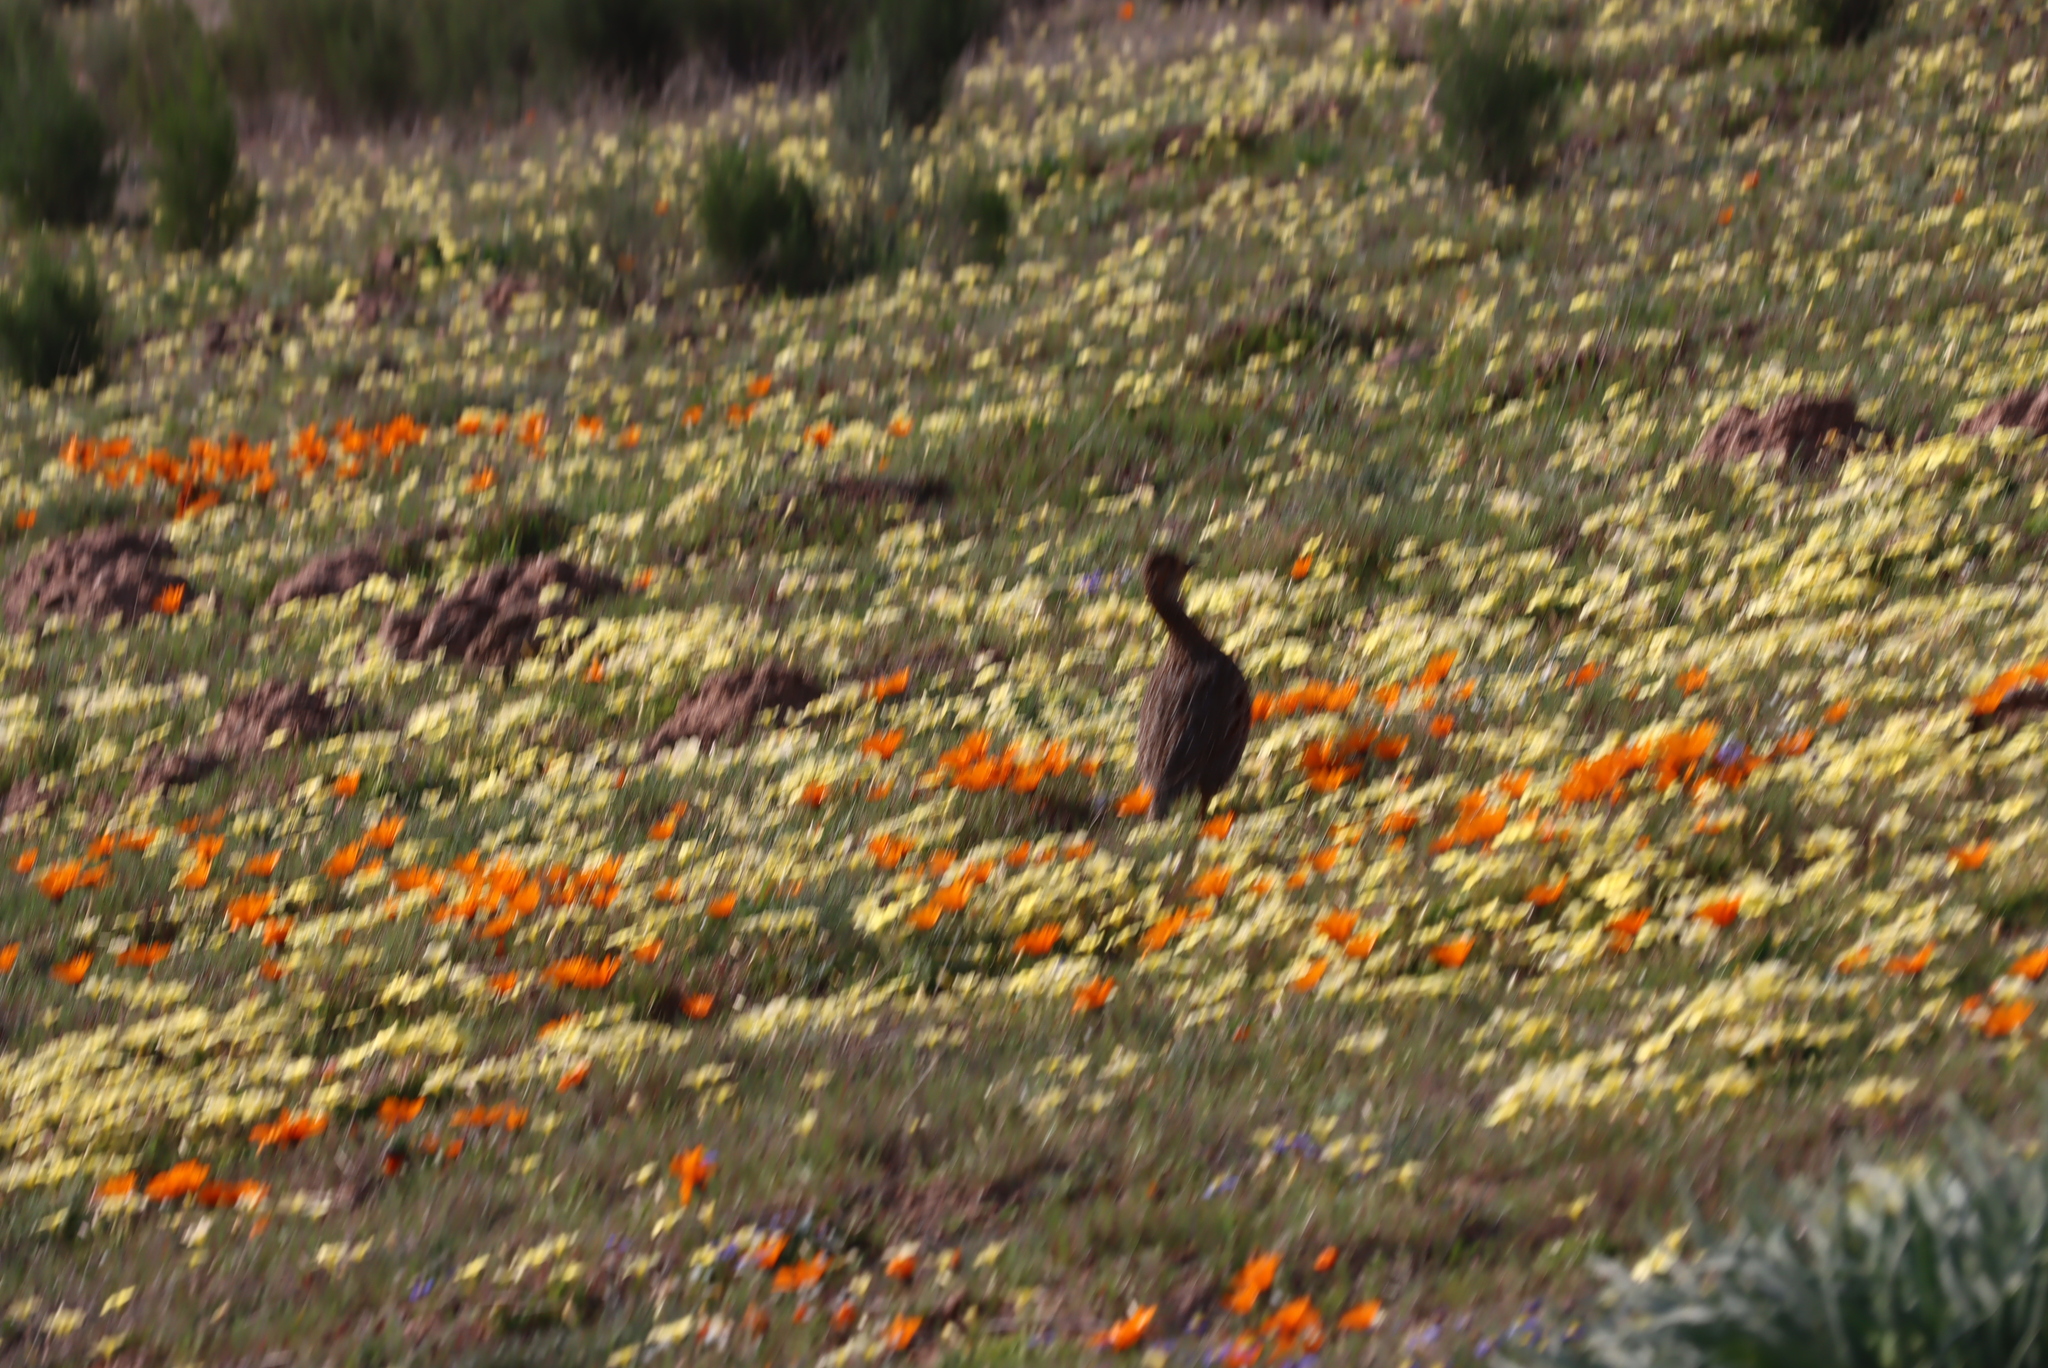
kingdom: Animalia
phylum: Chordata
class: Aves
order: Galliformes
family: Phasianidae
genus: Pternistis
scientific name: Pternistis capensis
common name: Cape spurfowl
